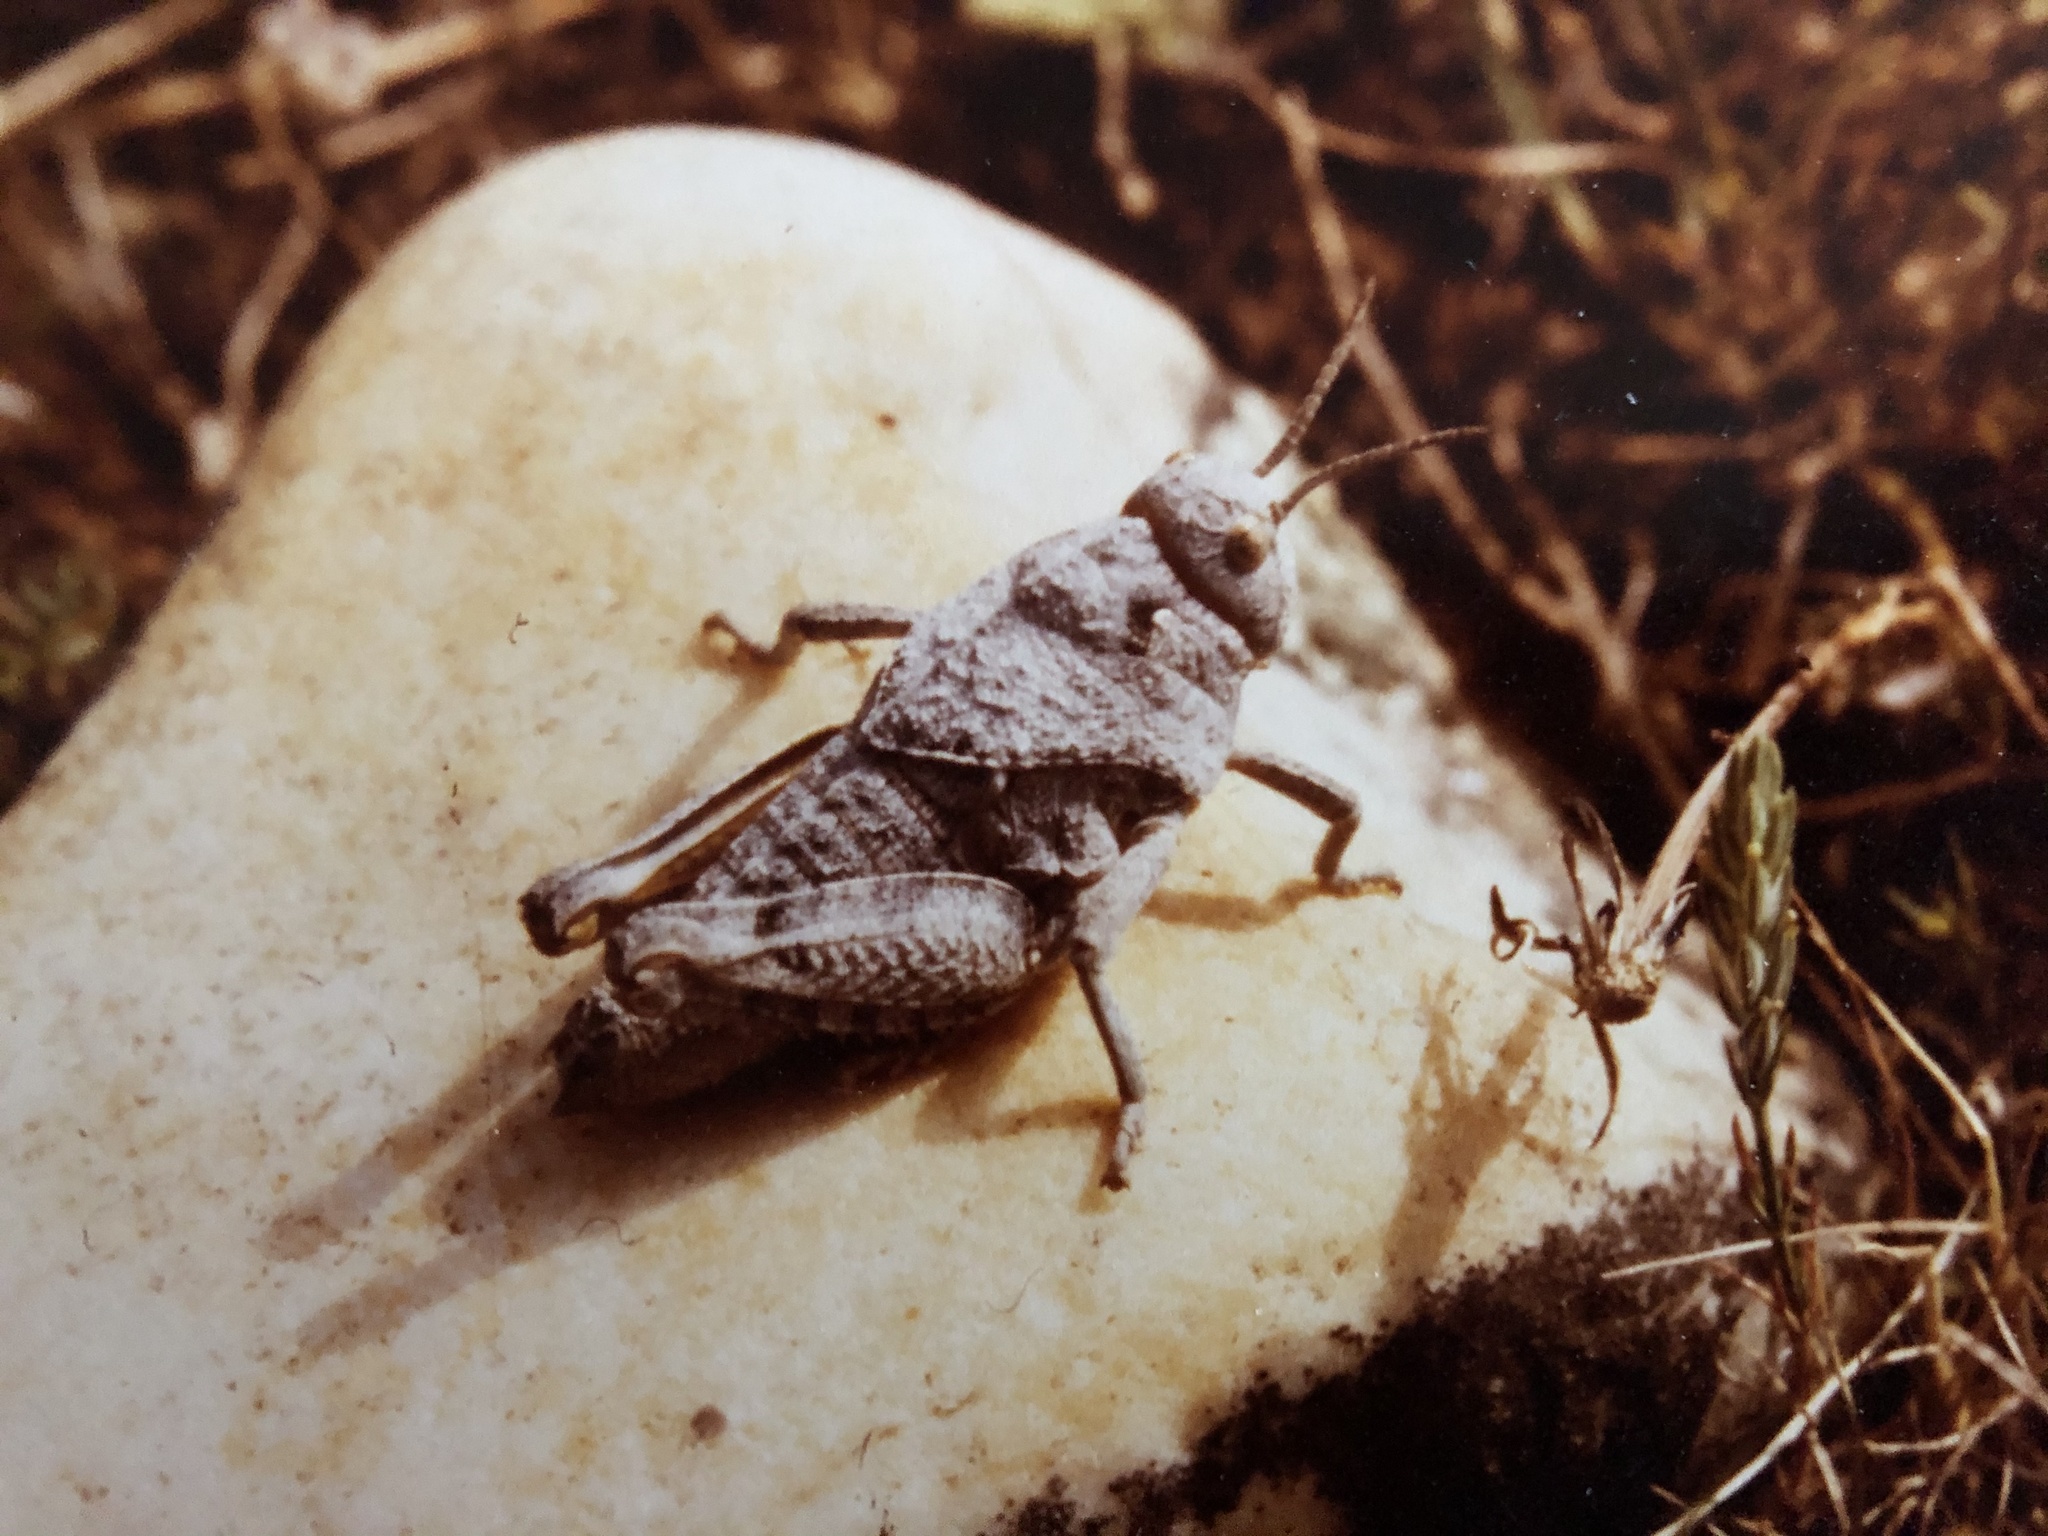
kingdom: Animalia
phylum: Arthropoda
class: Insecta
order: Orthoptera
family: Pamphagidae
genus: Prionotropis
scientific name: Prionotropis rhodanica
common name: Crau plain grasshopper
